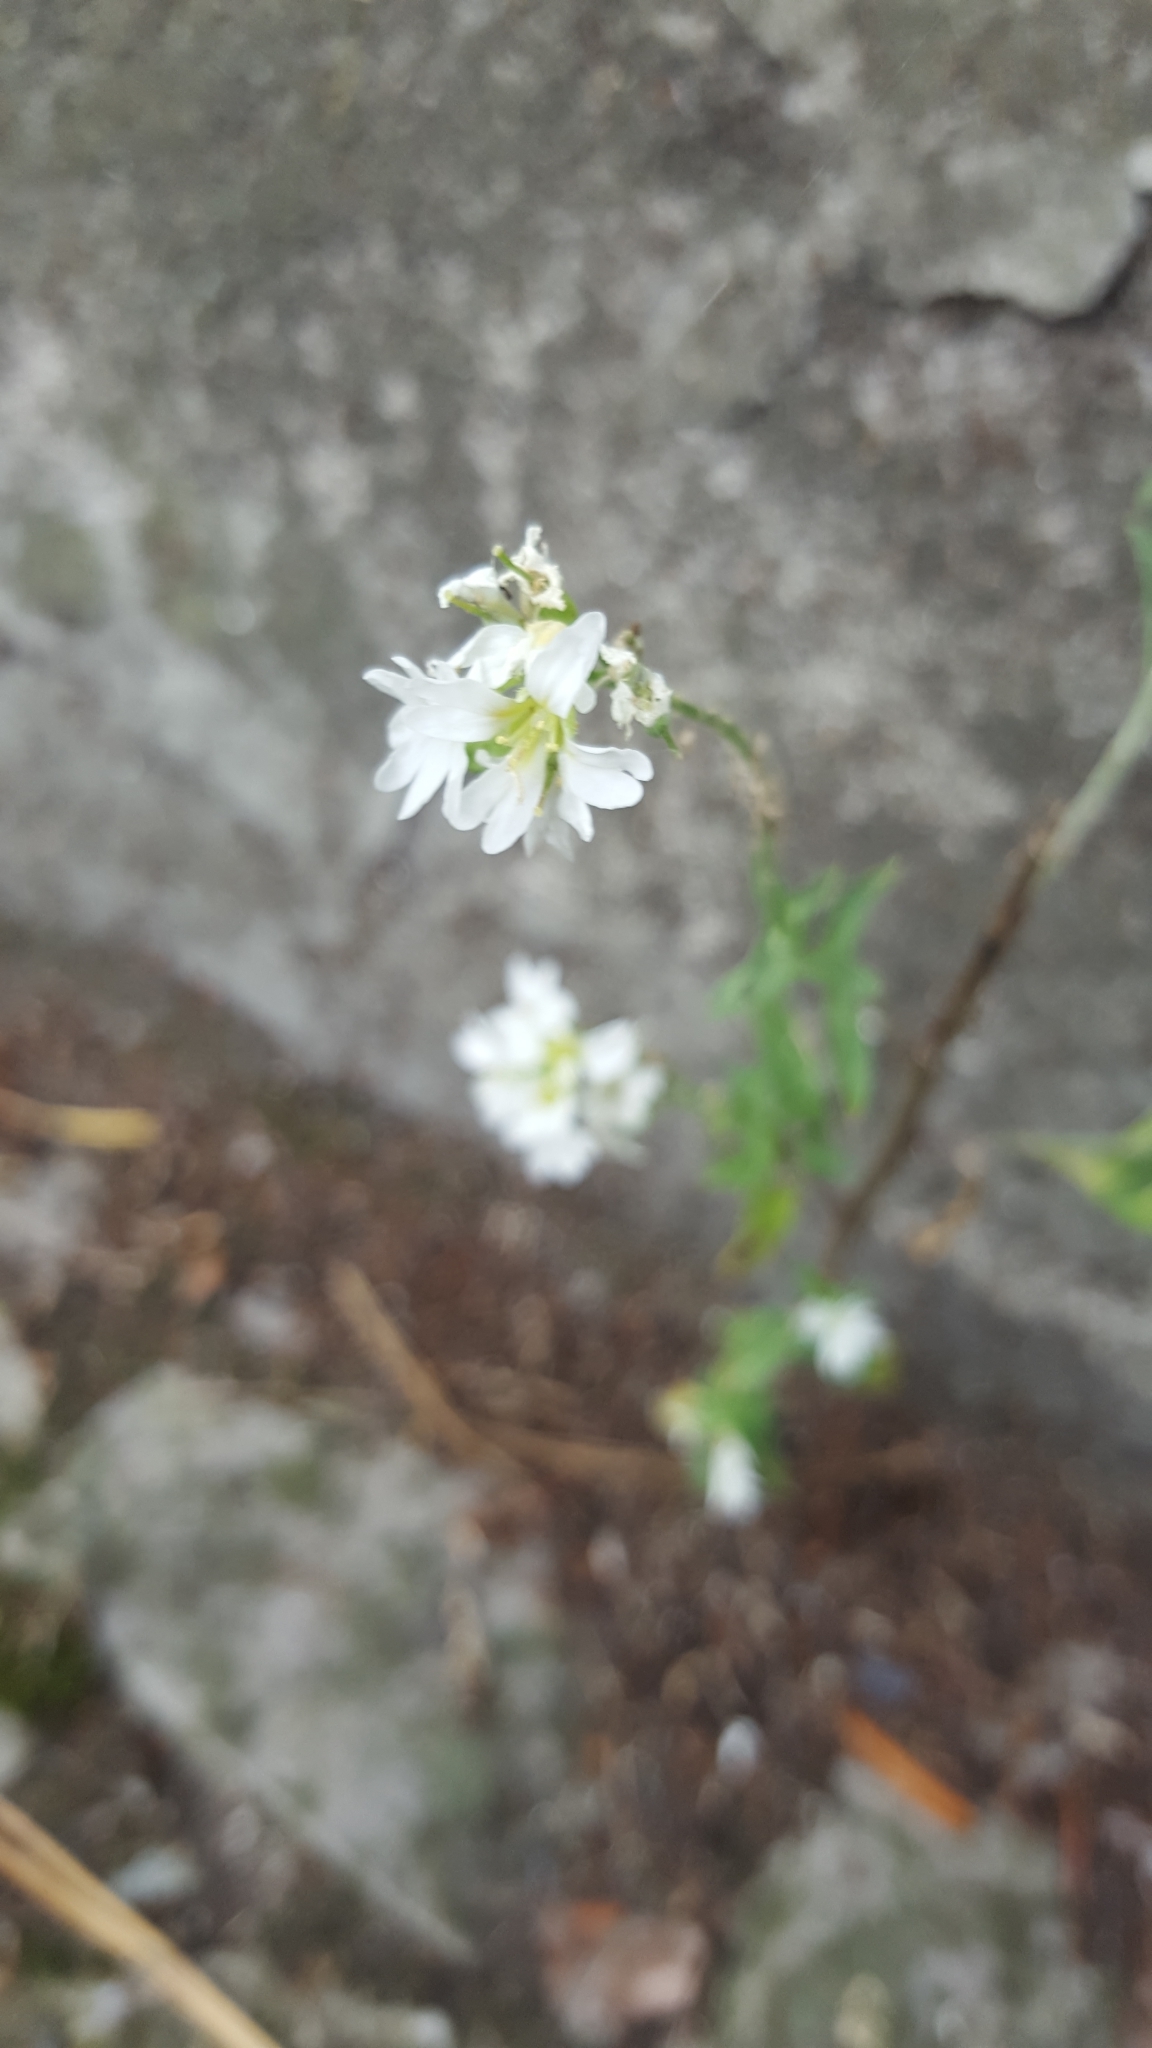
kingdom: Plantae
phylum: Tracheophyta
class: Magnoliopsida
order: Brassicales
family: Brassicaceae
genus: Berteroa
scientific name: Berteroa incana
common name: Hoary alison
